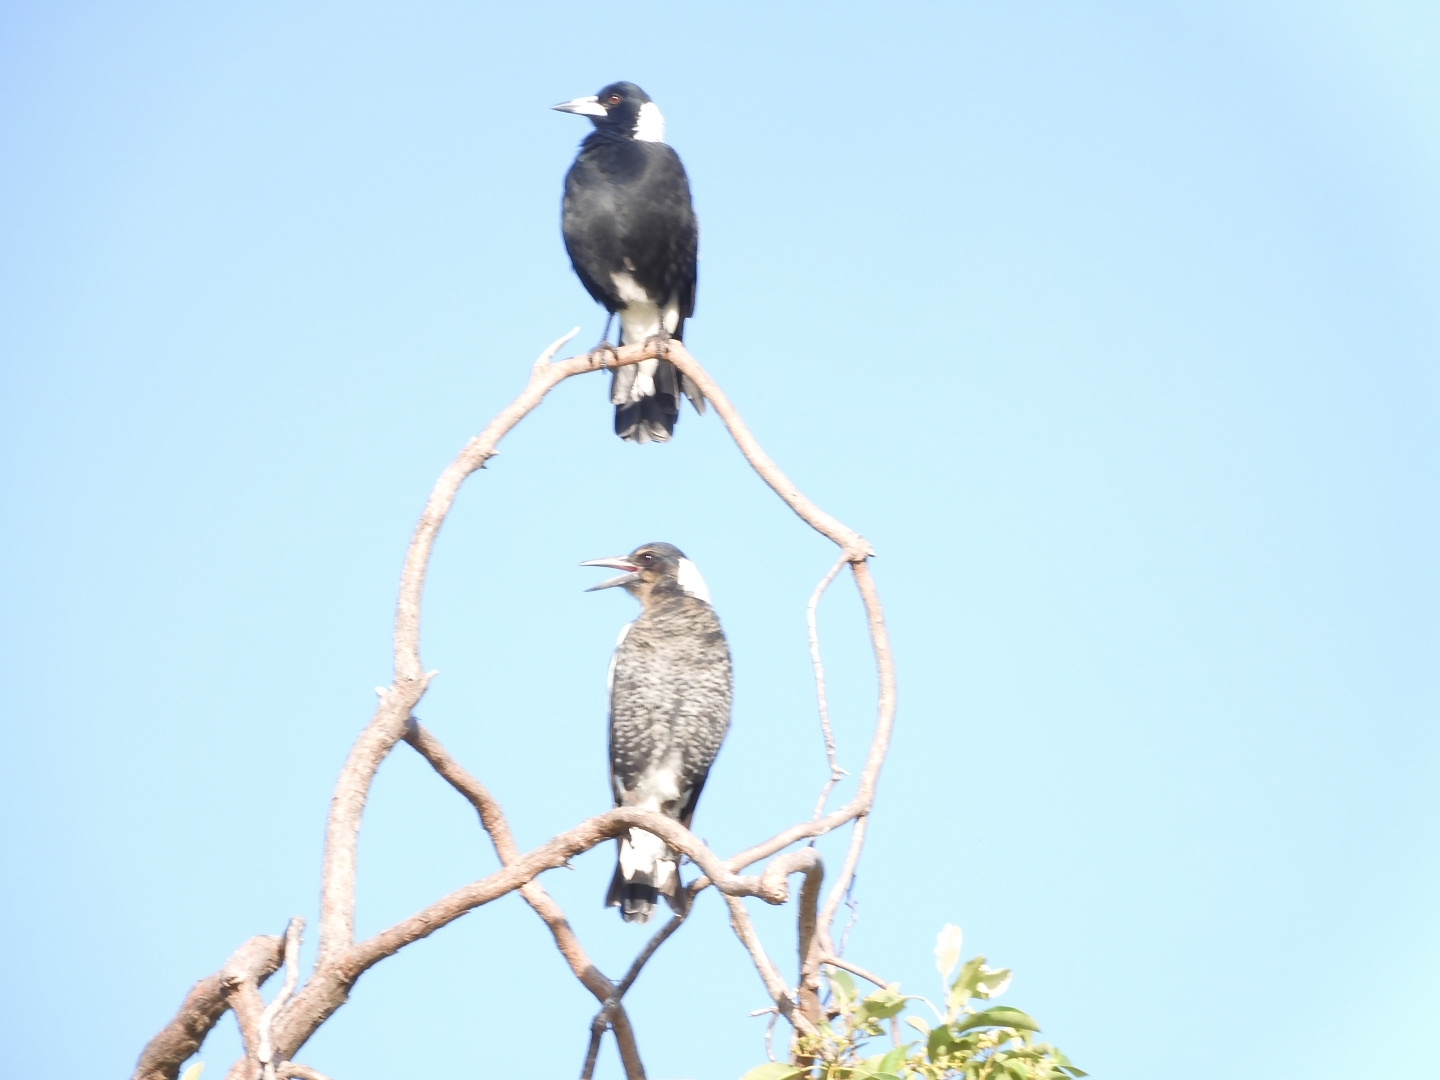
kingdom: Animalia
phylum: Chordata
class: Aves
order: Passeriformes
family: Cracticidae
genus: Gymnorhina
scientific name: Gymnorhina tibicen
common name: Australian magpie
